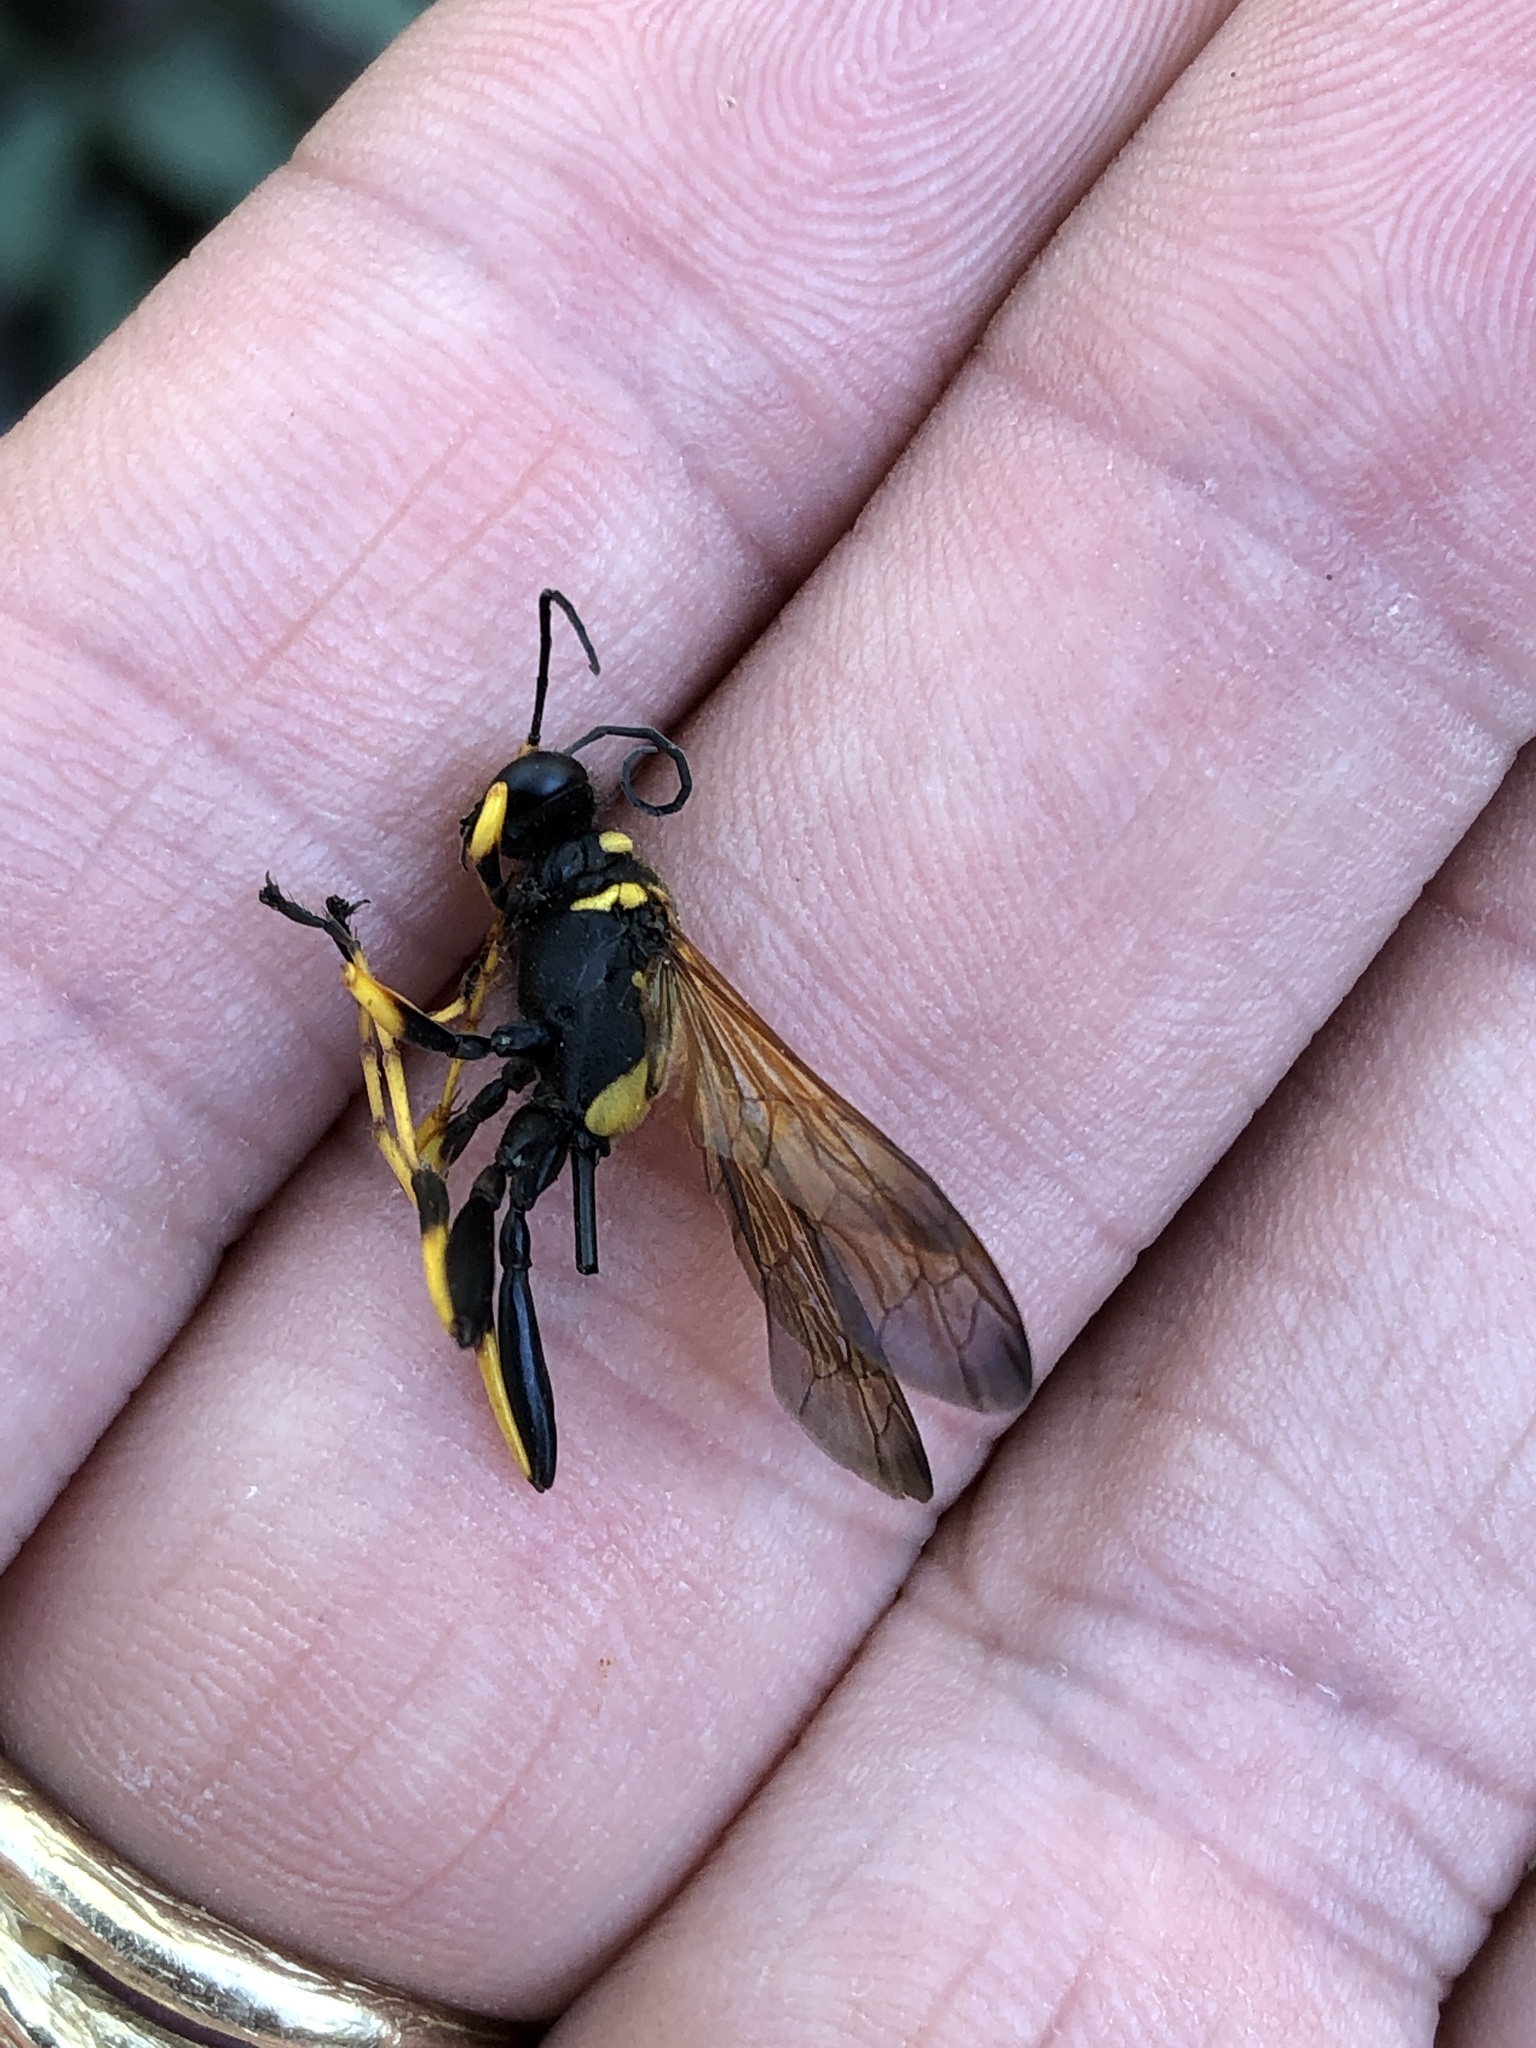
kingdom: Animalia
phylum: Arthropoda
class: Insecta
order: Hymenoptera
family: Sphecidae
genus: Sceliphron
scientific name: Sceliphron caementarium
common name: Mud dauber
